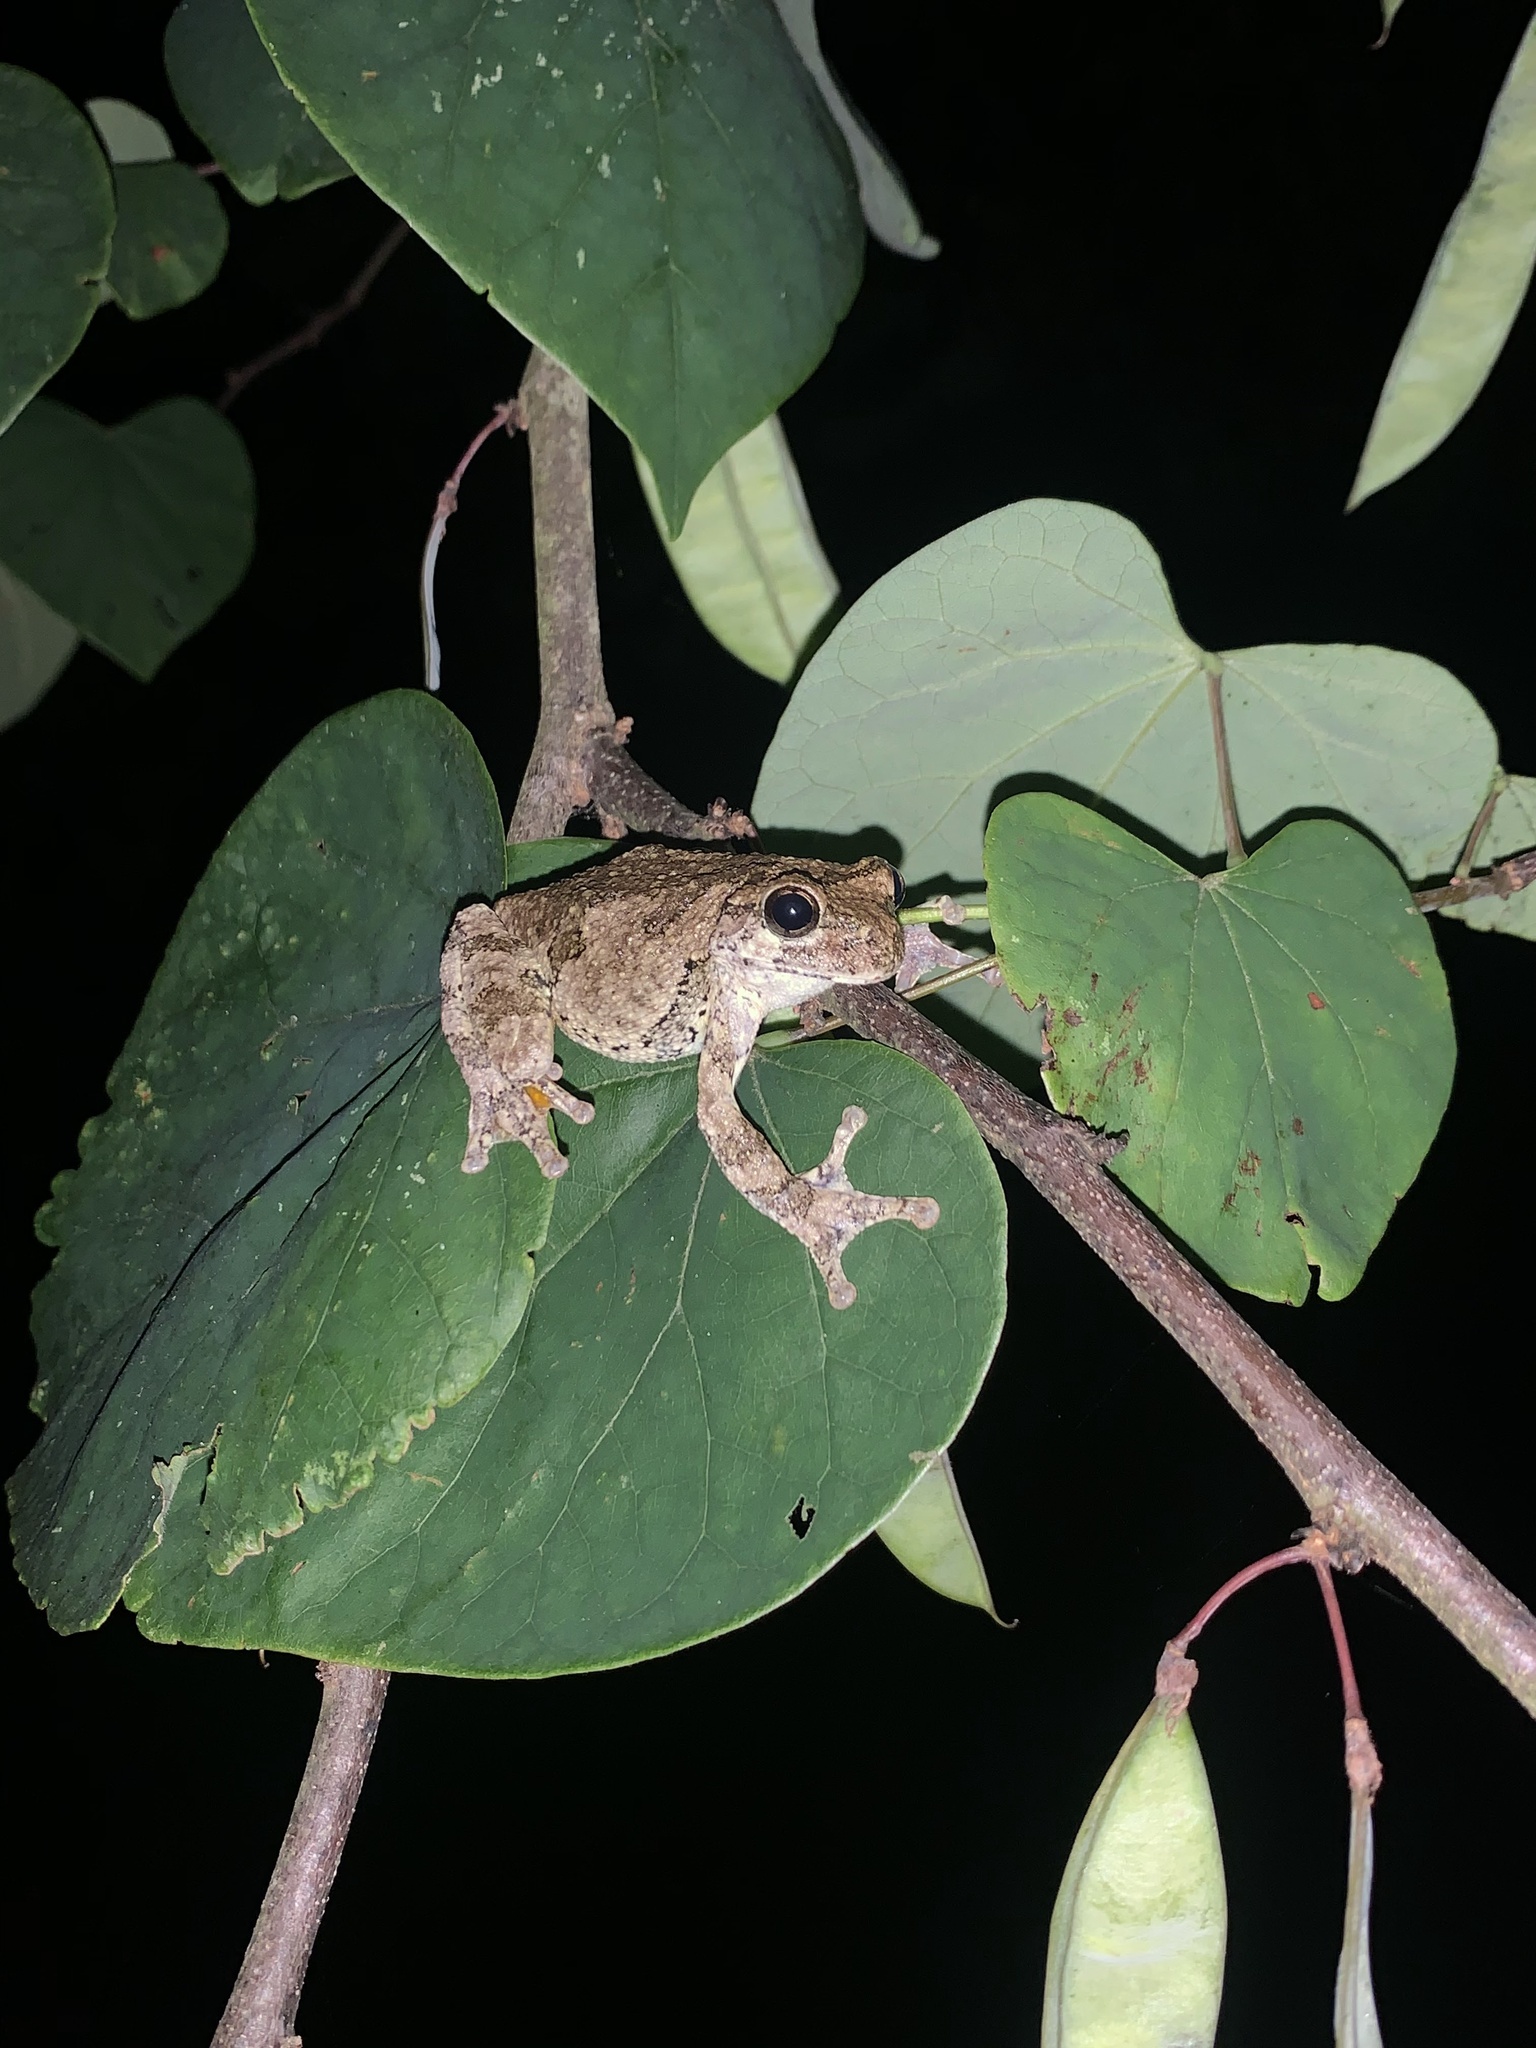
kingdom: Animalia
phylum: Chordata
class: Amphibia
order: Anura
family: Hylidae
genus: Dryophytes
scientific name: Dryophytes chrysoscelis
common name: Cope's gray treefrog
